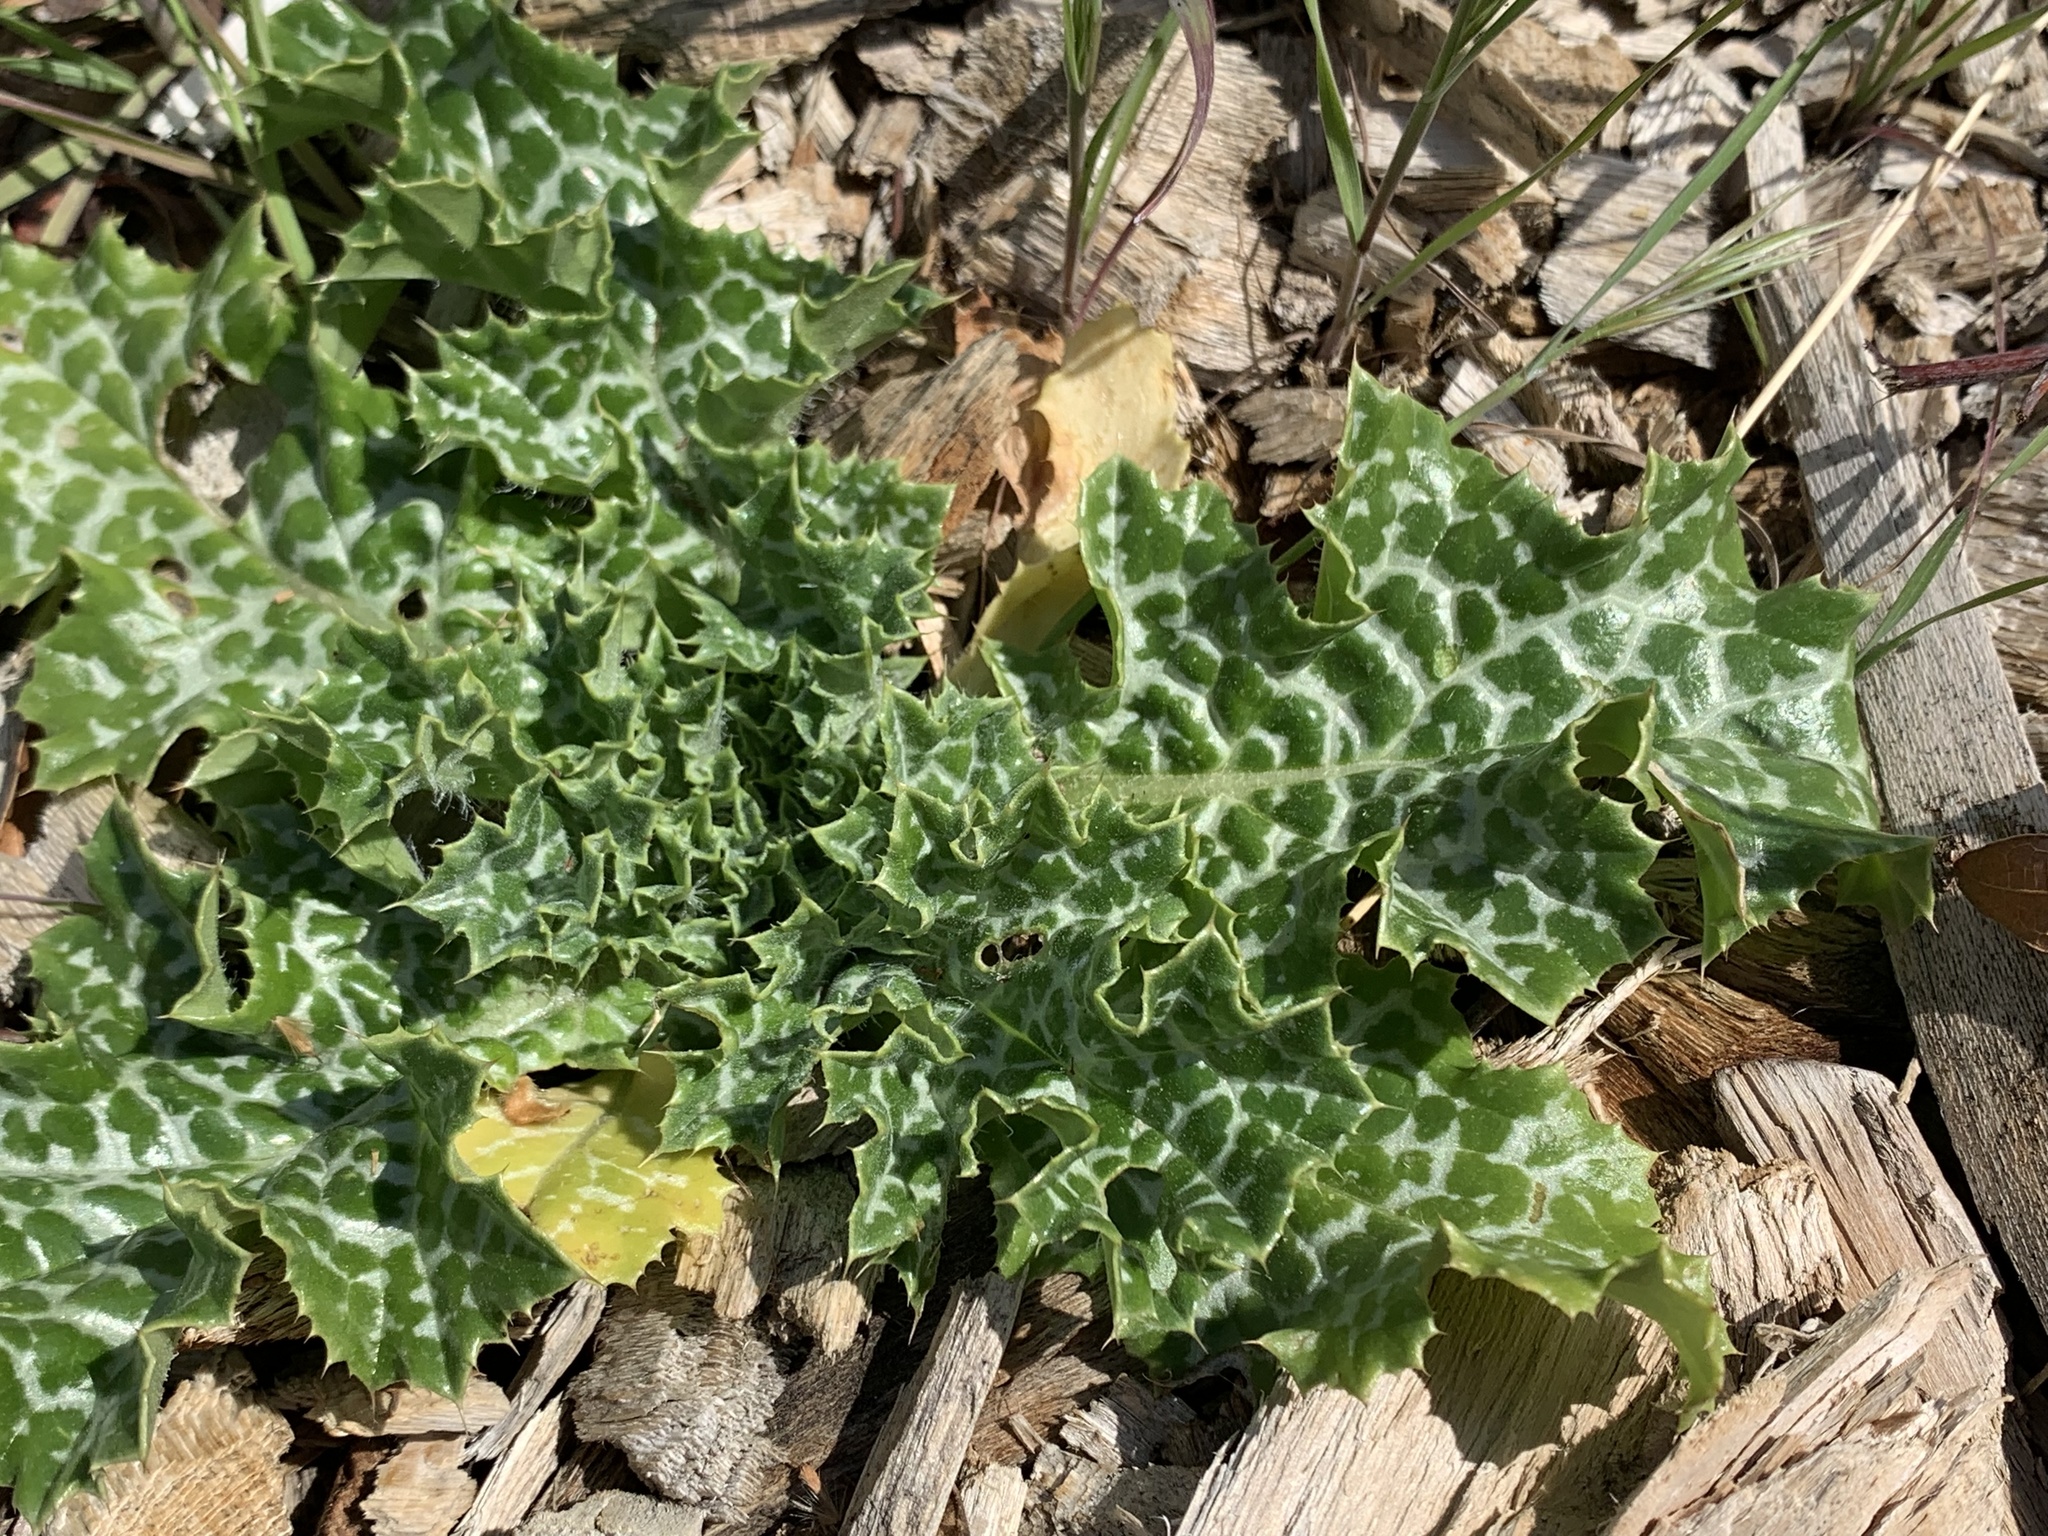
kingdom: Plantae
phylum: Tracheophyta
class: Magnoliopsida
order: Asterales
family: Asteraceae
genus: Silybum
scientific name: Silybum marianum
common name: Milk thistle
